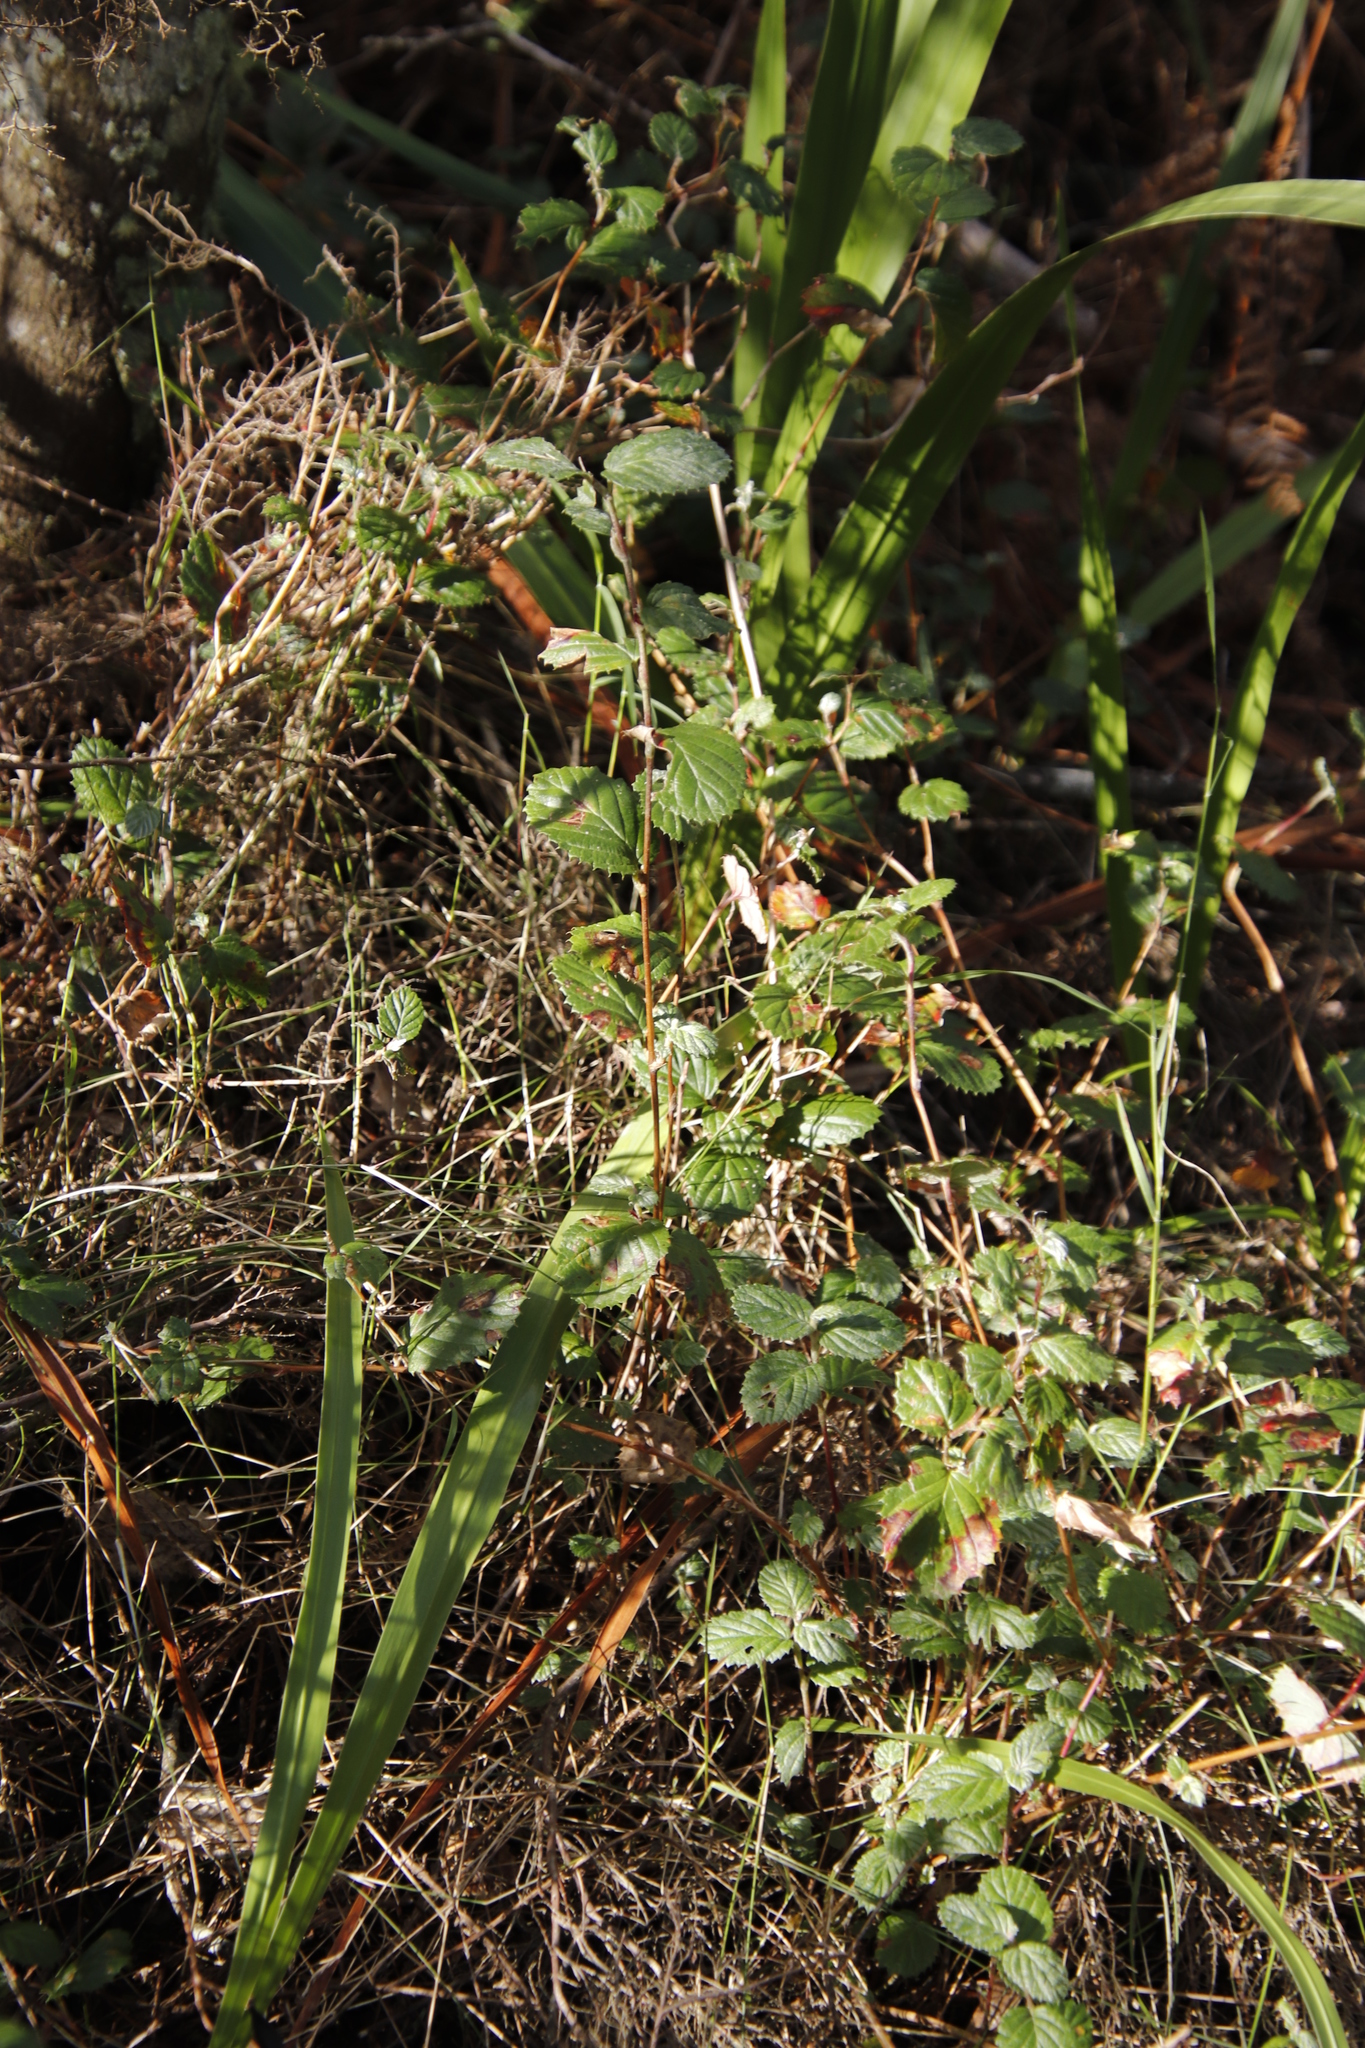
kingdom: Plantae
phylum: Tracheophyta
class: Magnoliopsida
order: Rosales
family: Rosaceae
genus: Cliffortia
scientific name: Cliffortia odorata
